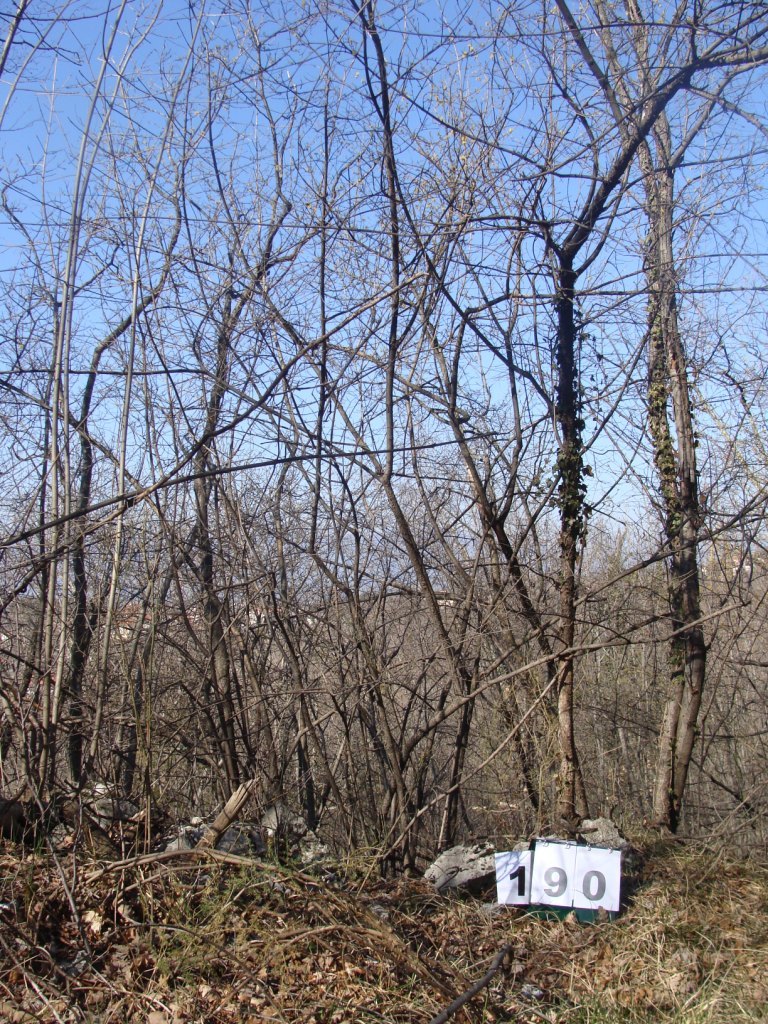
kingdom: Plantae
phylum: Tracheophyta
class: Magnoliopsida
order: Cornales
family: Cornaceae
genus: Cornus
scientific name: Cornus mas
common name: Cornelian-cherry
